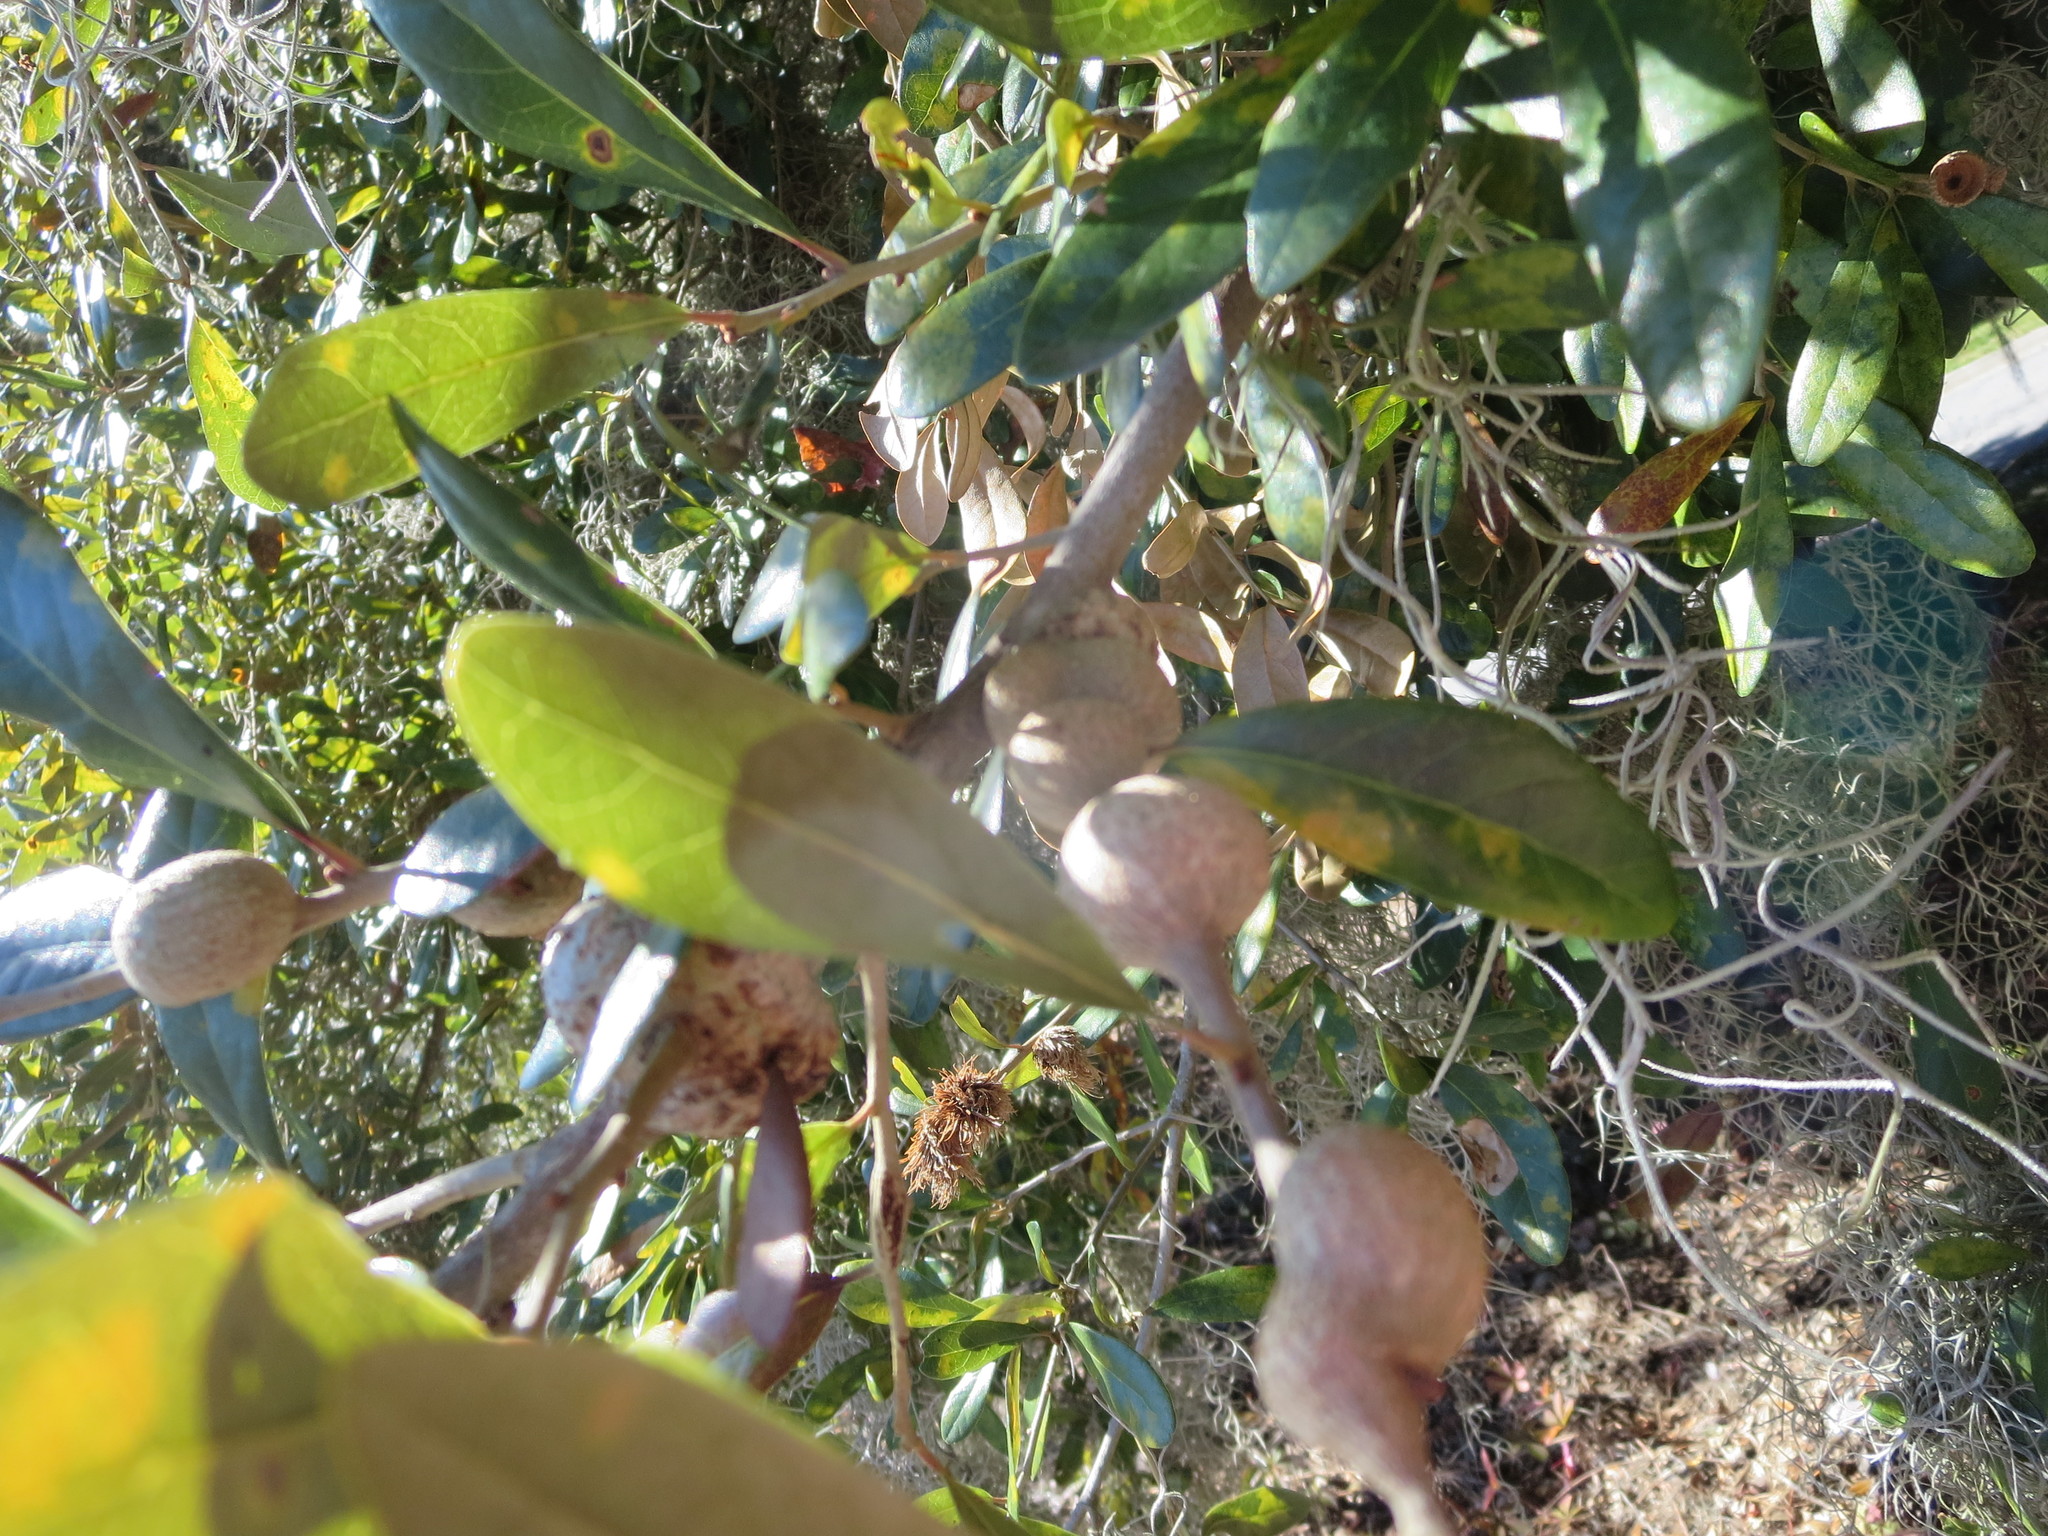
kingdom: Animalia
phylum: Arthropoda
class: Insecta
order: Hymenoptera
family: Cynipidae
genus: Callirhytis
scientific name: Callirhytis
